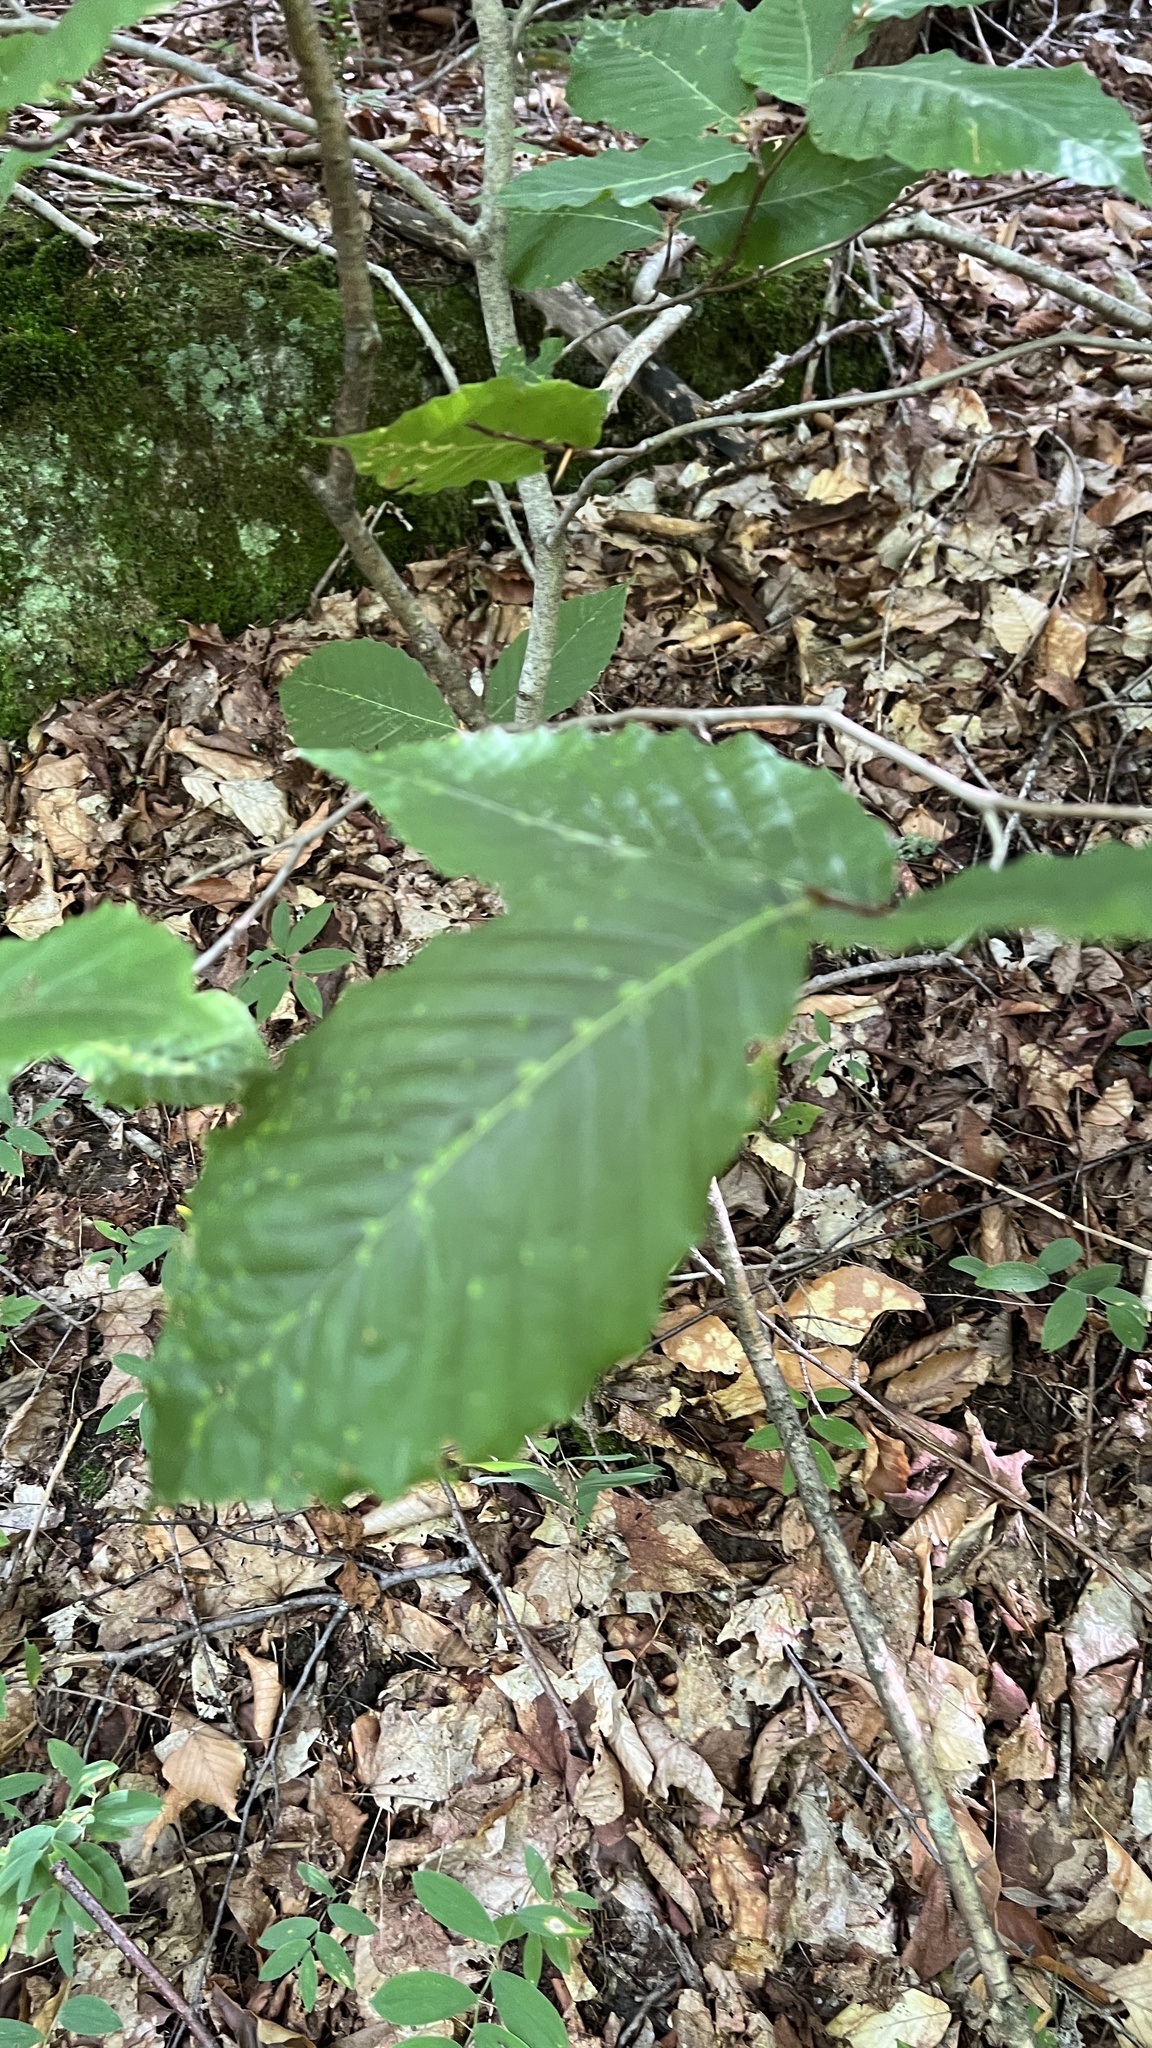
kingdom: Plantae
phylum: Tracheophyta
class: Magnoliopsida
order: Fagales
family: Fagaceae
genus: Fagus
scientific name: Fagus grandifolia
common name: American beech
